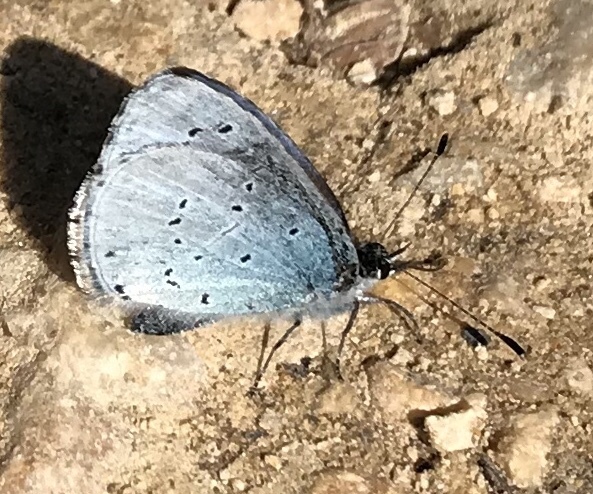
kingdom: Animalia
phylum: Arthropoda
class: Insecta
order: Lepidoptera
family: Lycaenidae
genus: Celastrina
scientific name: Celastrina argiolus
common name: Holly blue
